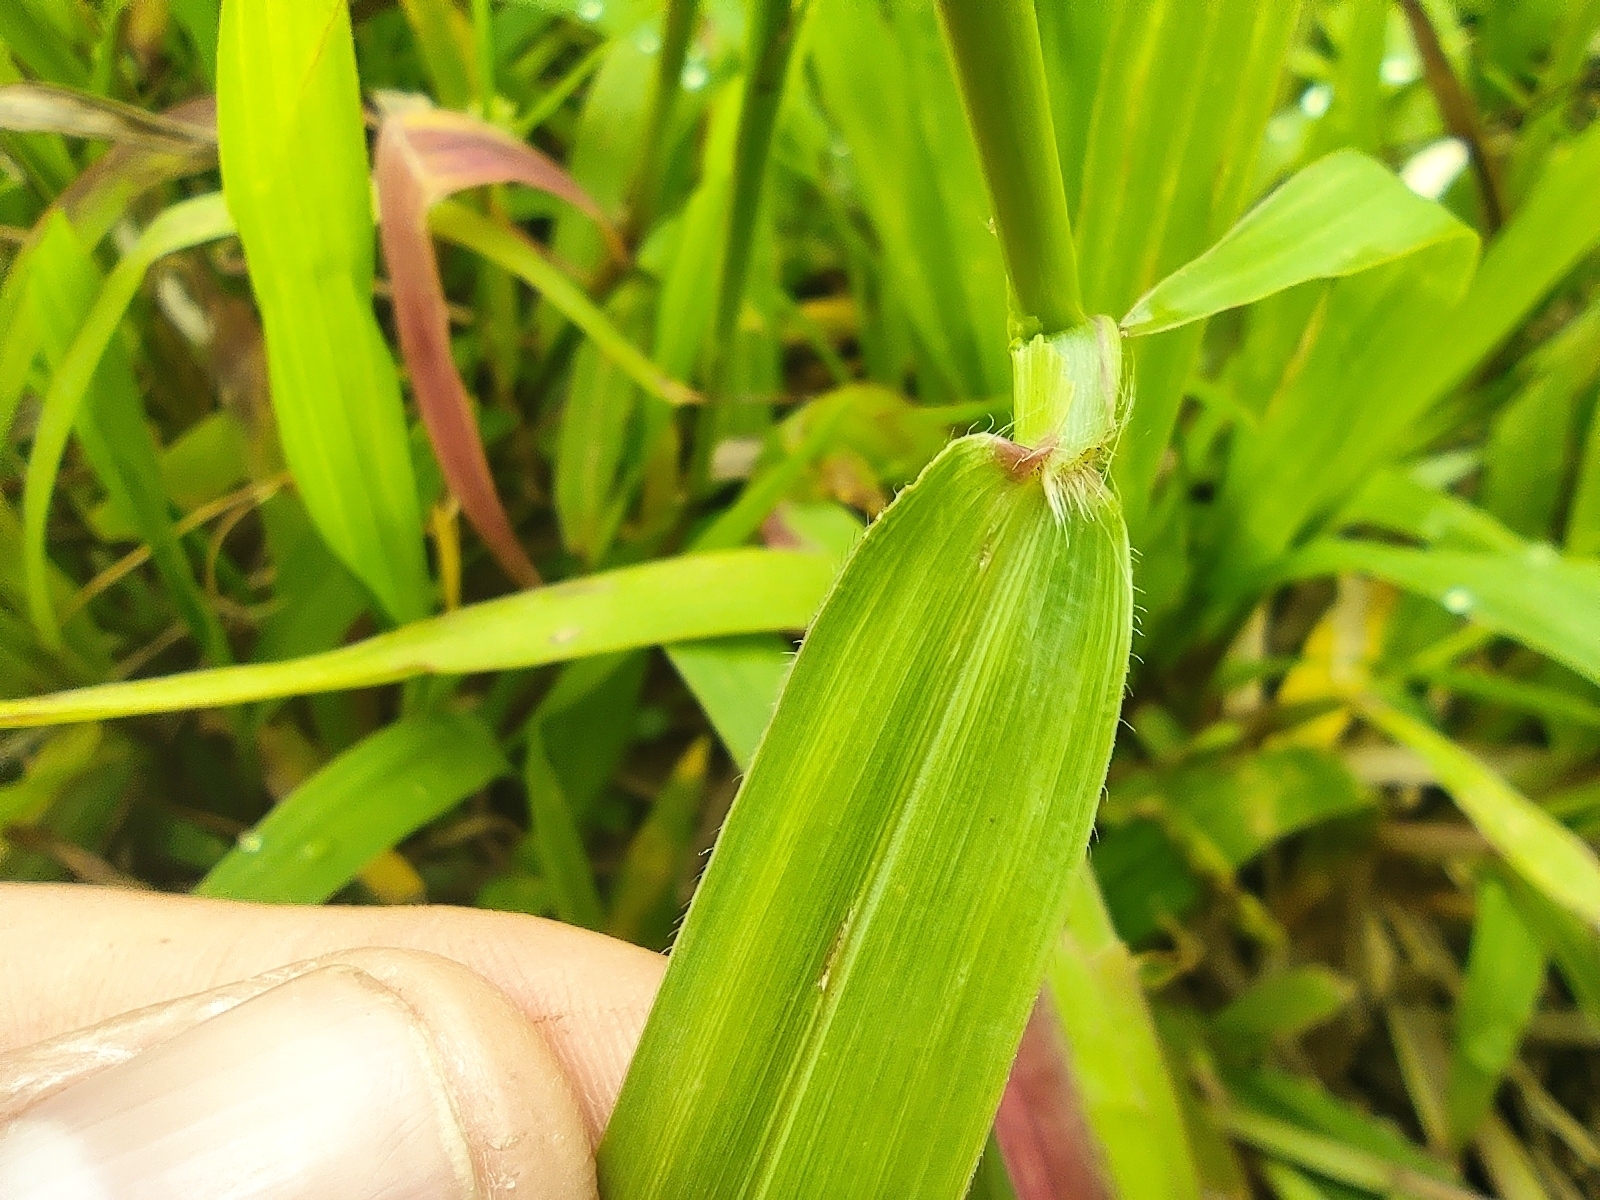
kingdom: Plantae
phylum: Tracheophyta
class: Liliopsida
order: Poales
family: Poaceae
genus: Paspalum
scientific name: Paspalum conjugatum
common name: Hilograss
